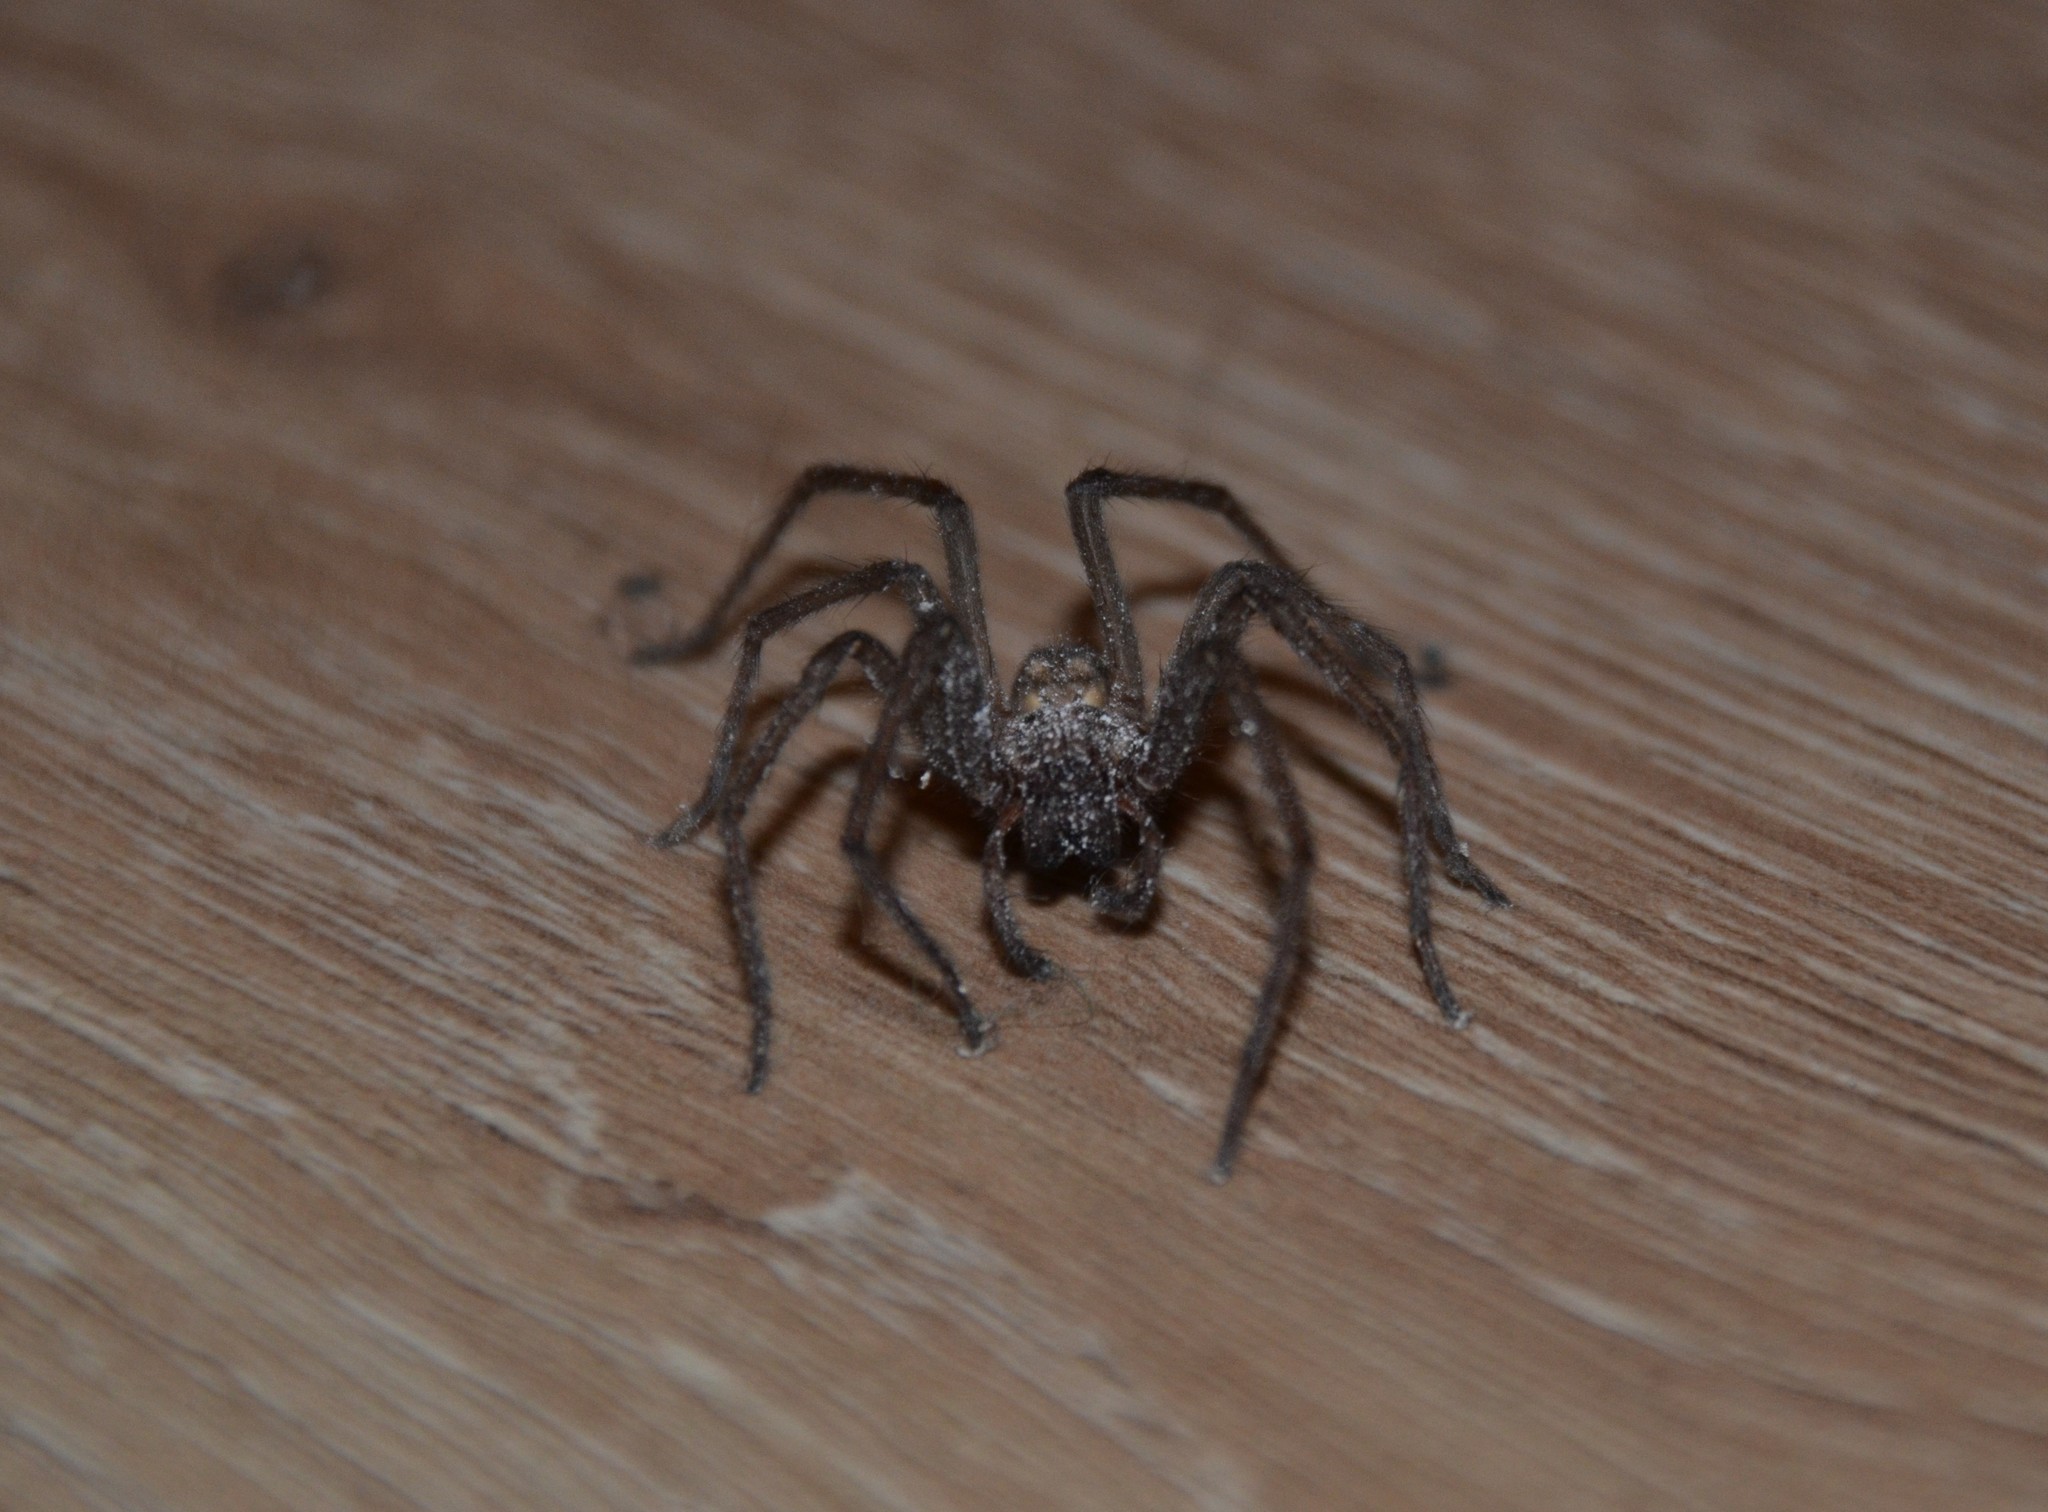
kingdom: Animalia
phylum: Arthropoda
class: Arachnida
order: Araneae
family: Agelenidae
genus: Eratigena
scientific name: Eratigena atrica
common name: Giant house spider
